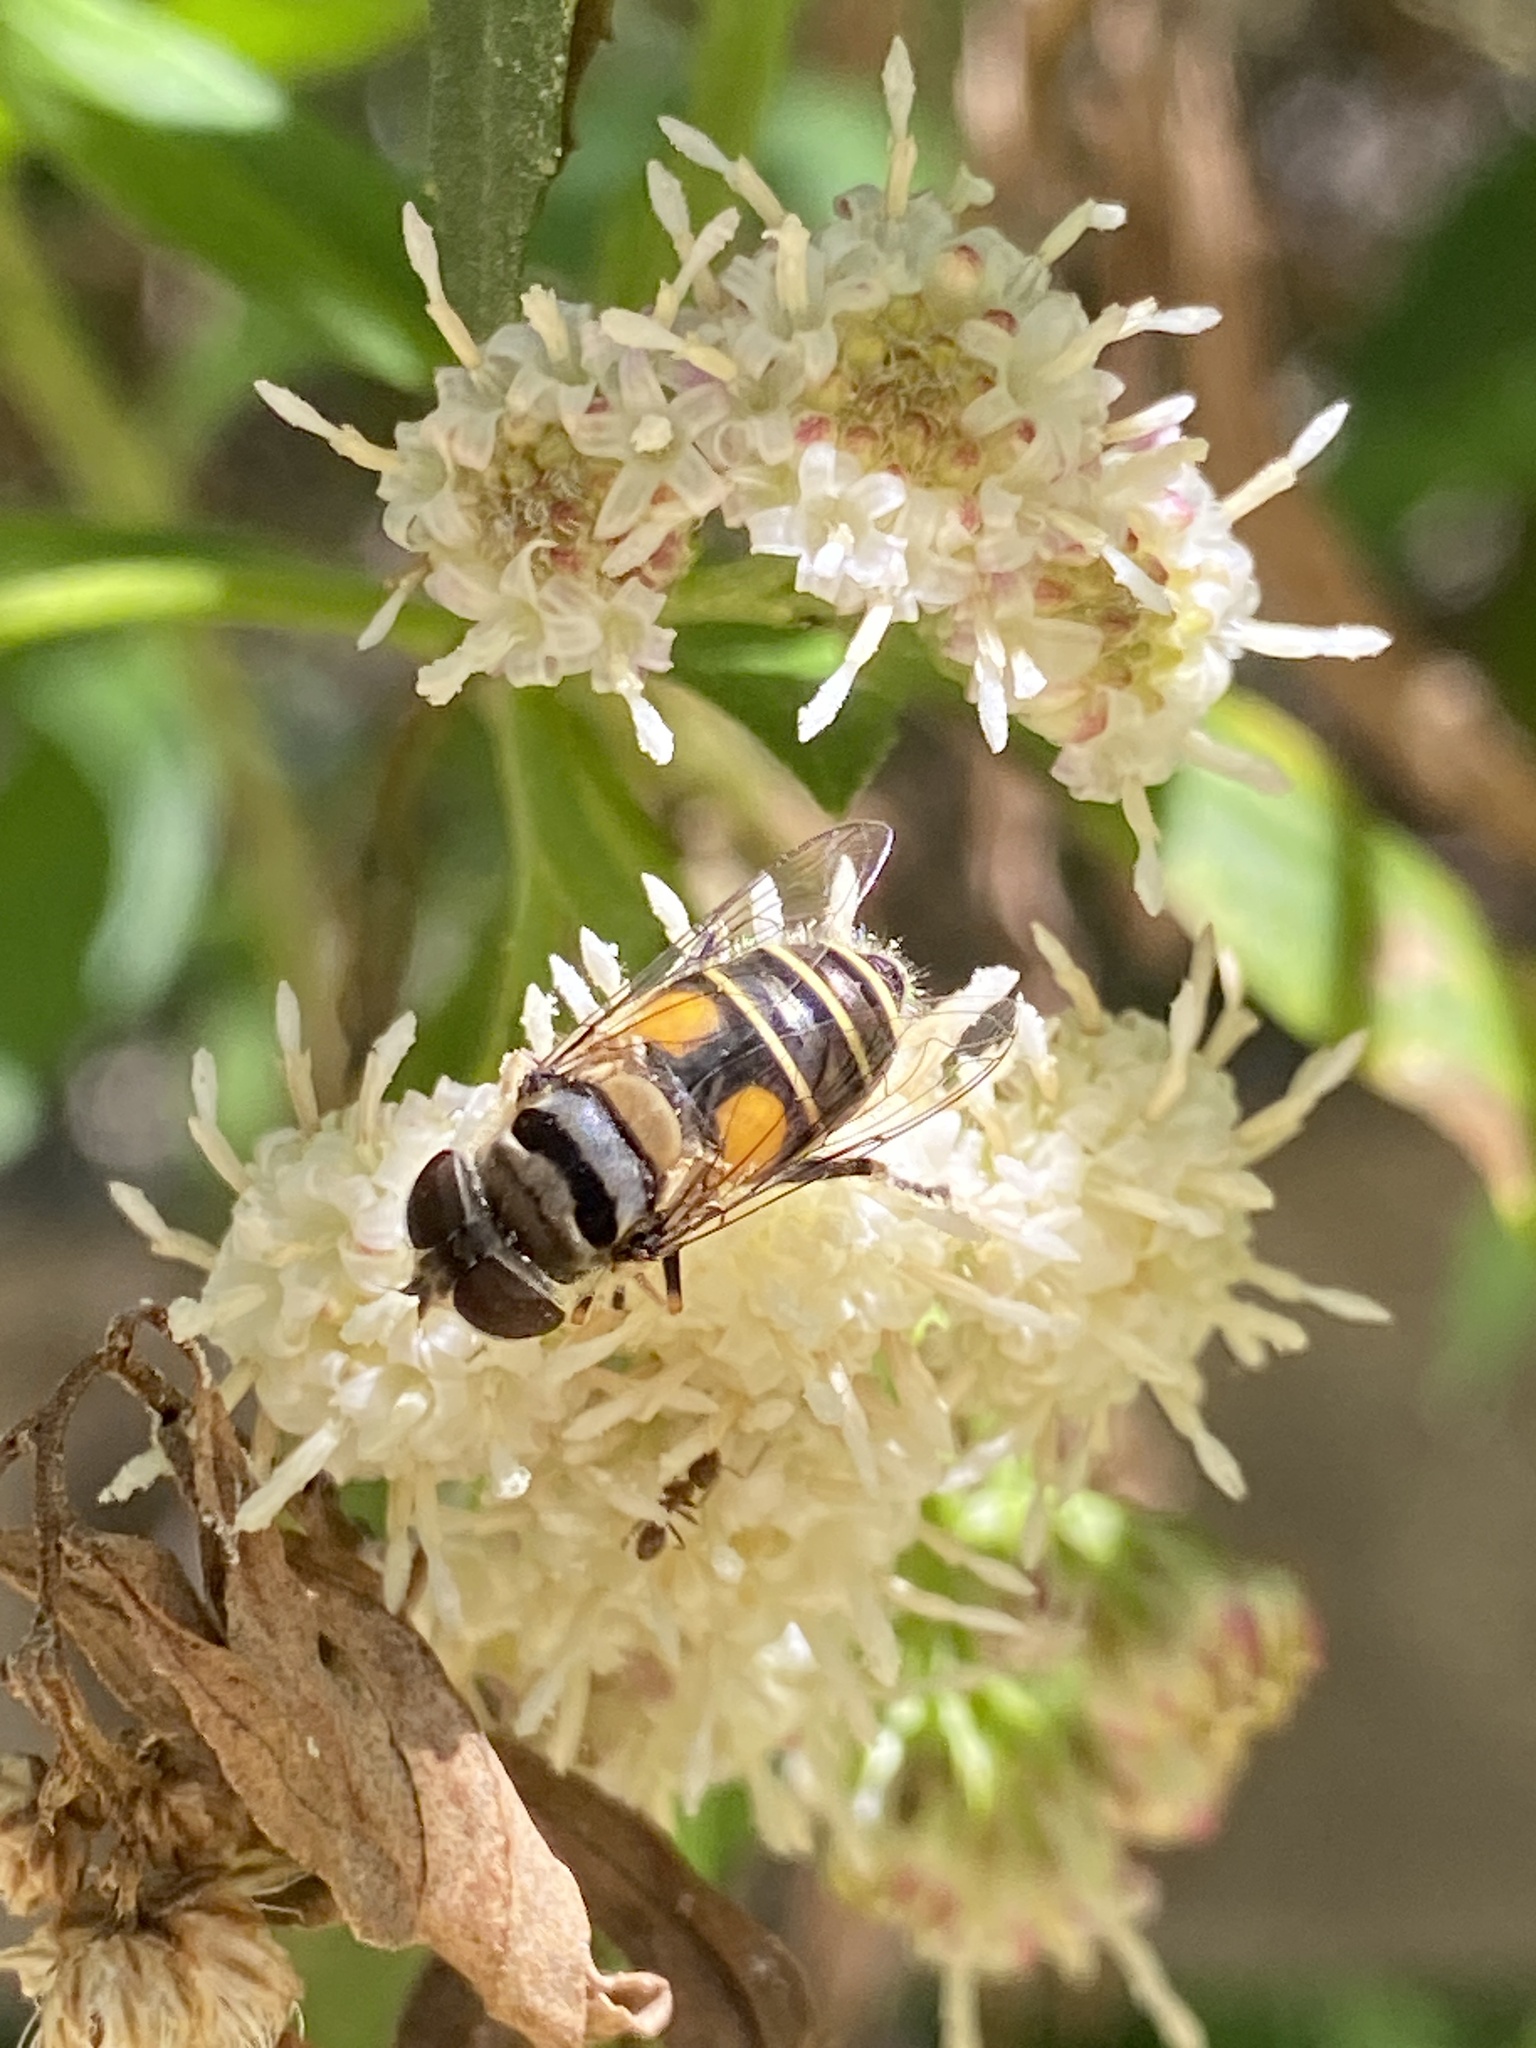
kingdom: Animalia
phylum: Arthropoda
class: Insecta
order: Diptera
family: Syrphidae
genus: Palpada
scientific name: Palpada alhambra
